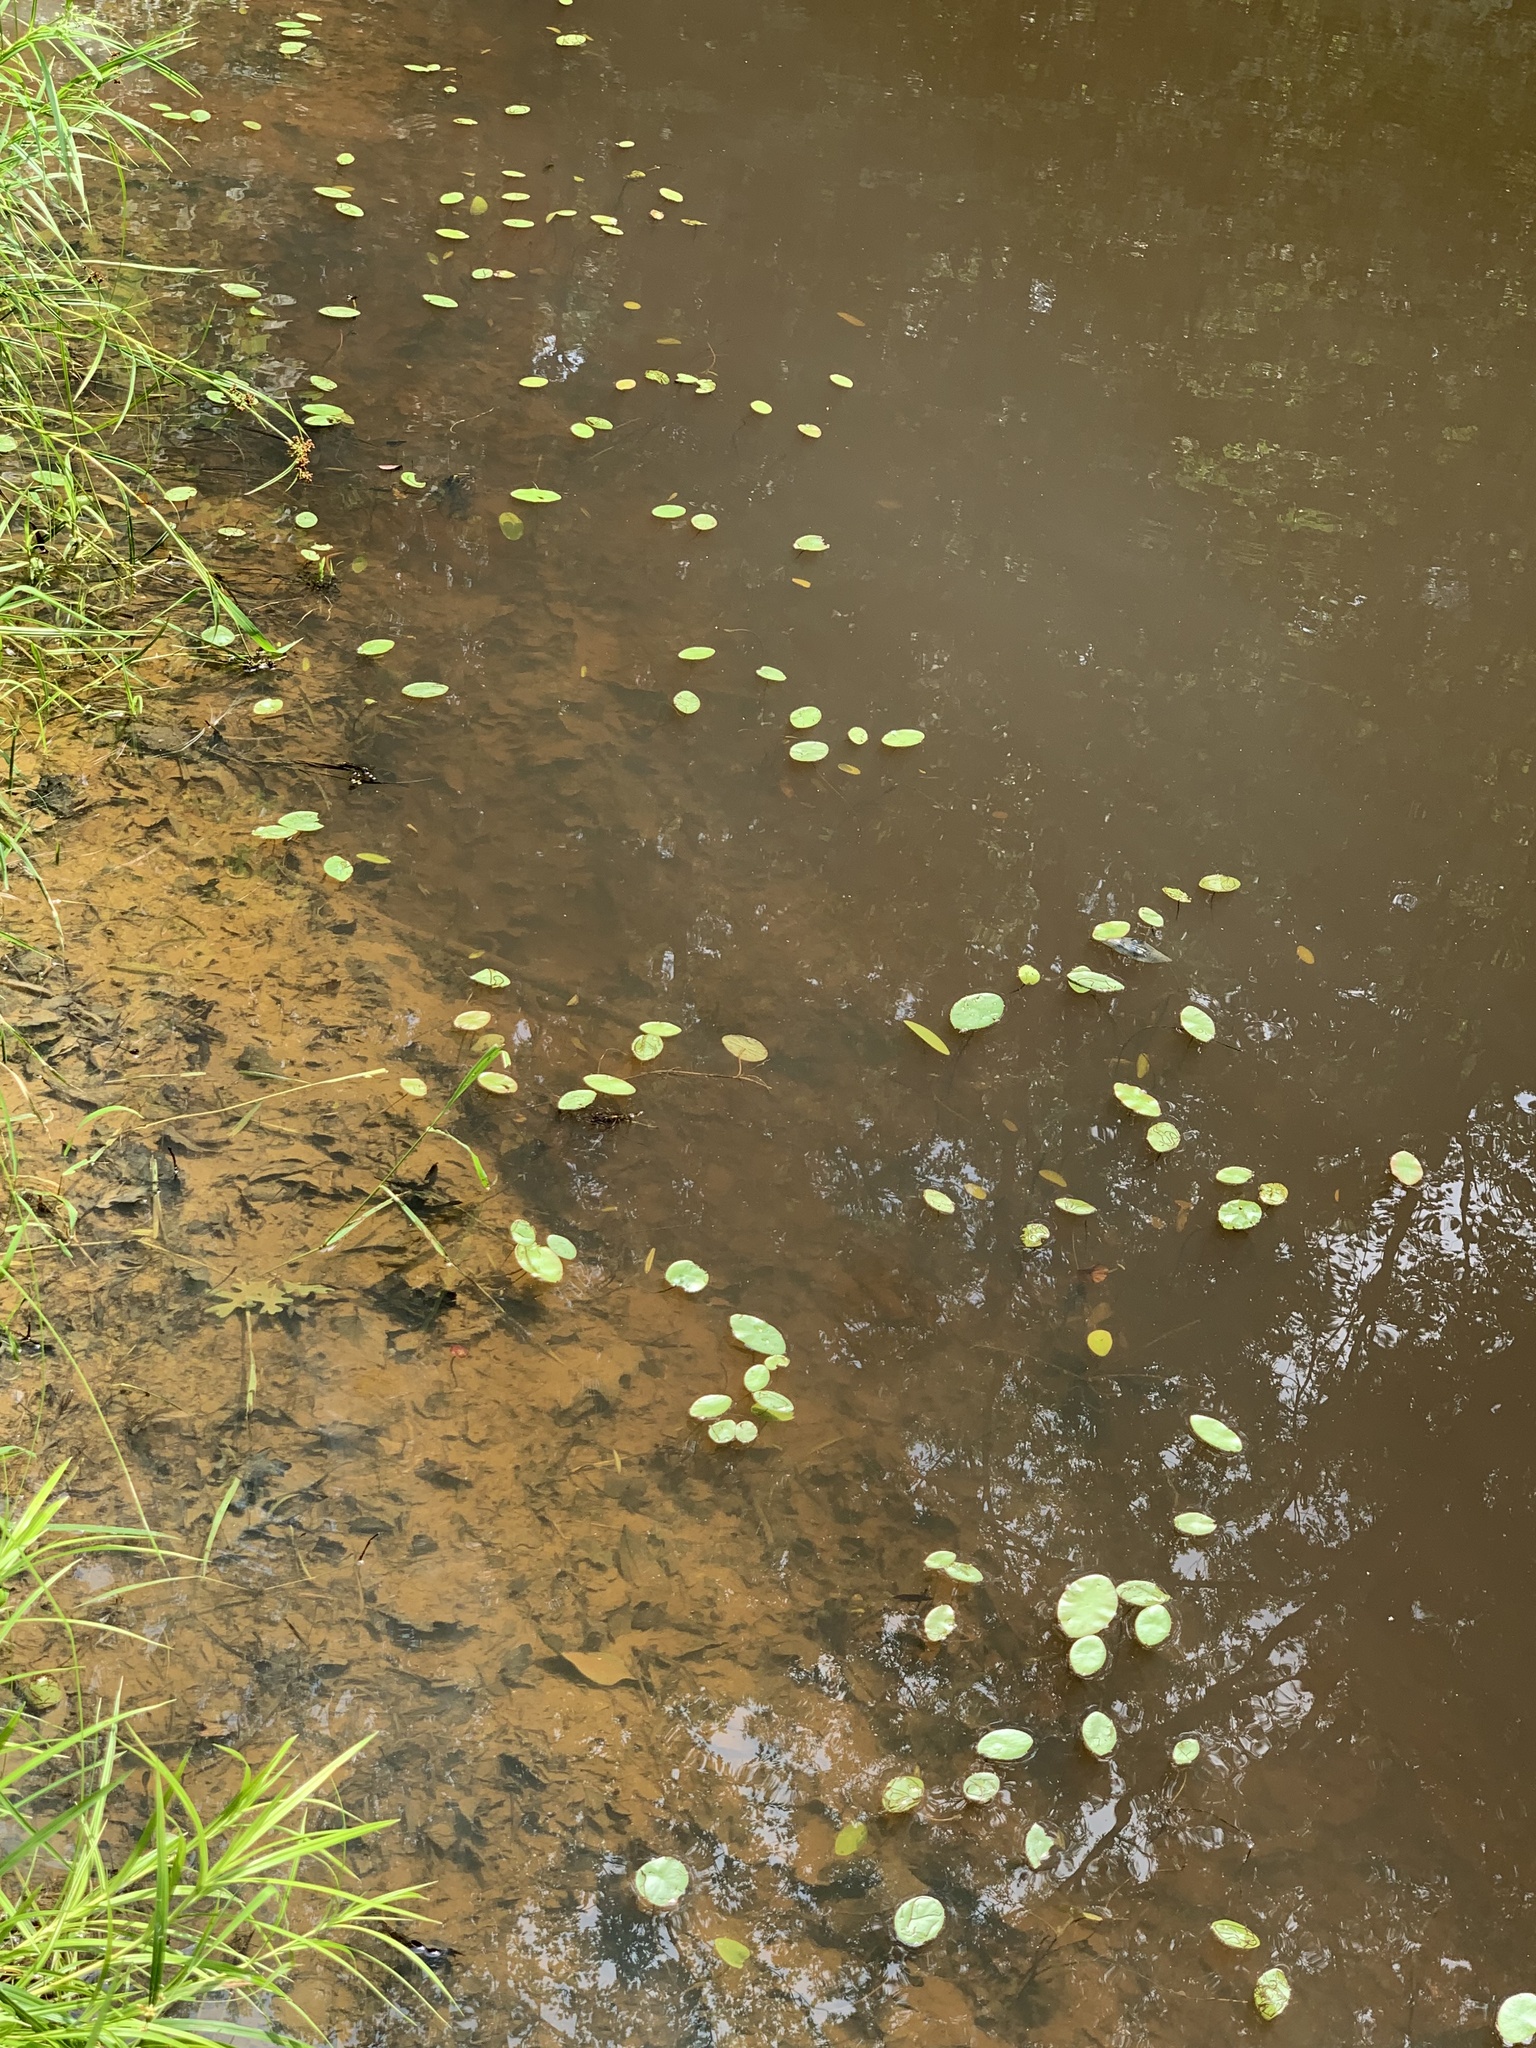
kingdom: Plantae
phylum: Tracheophyta
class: Magnoliopsida
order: Nymphaeales
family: Cabombaceae
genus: Brasenia
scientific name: Brasenia schreberi
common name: Water-shield
